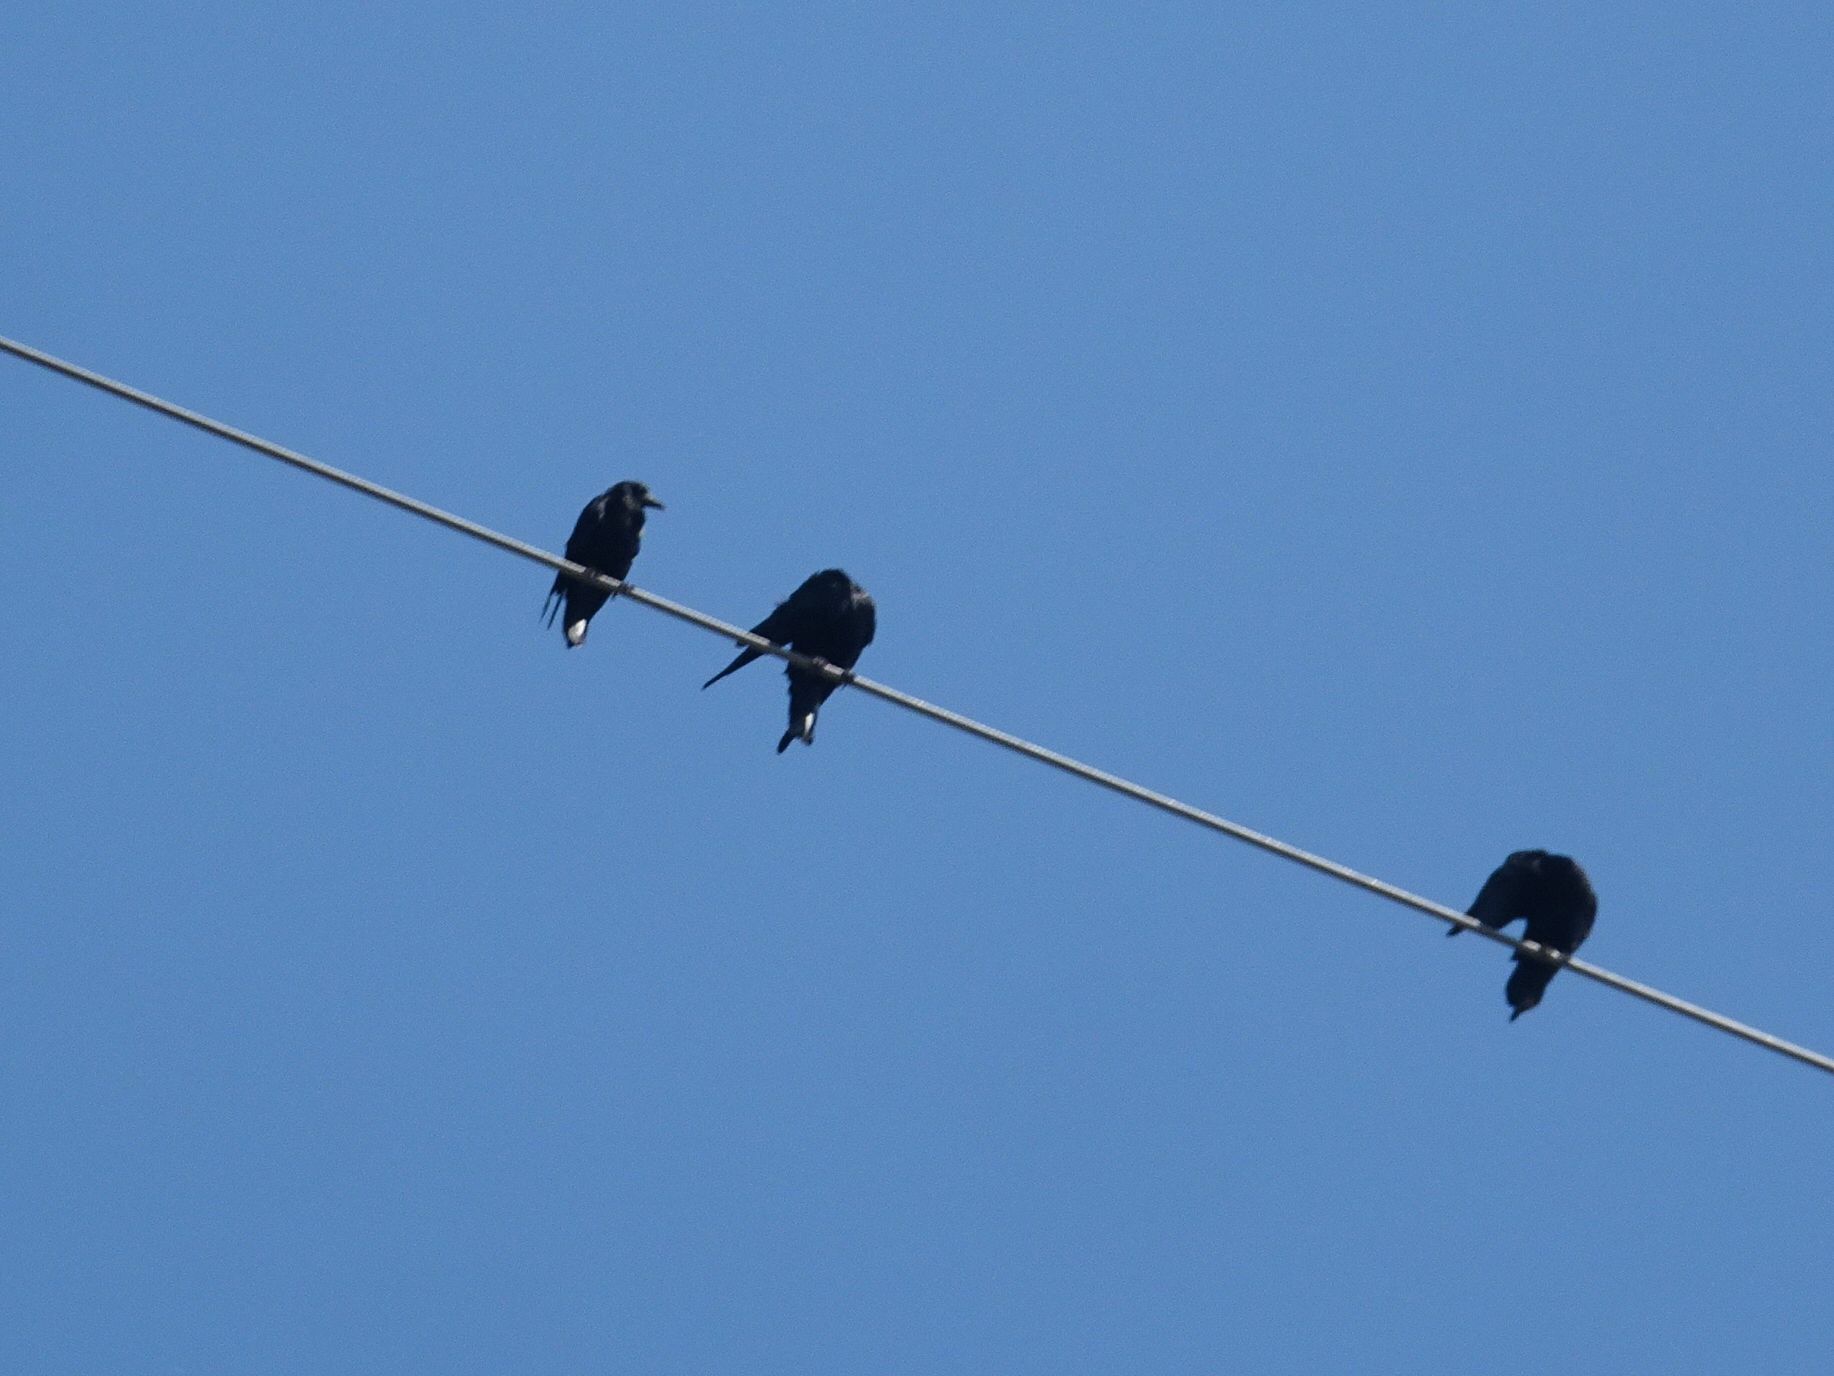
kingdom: Animalia
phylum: Chordata
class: Aves
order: Passeriformes
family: Corvidae
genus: Corvus
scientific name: Corvus frugilegus
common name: Rook
